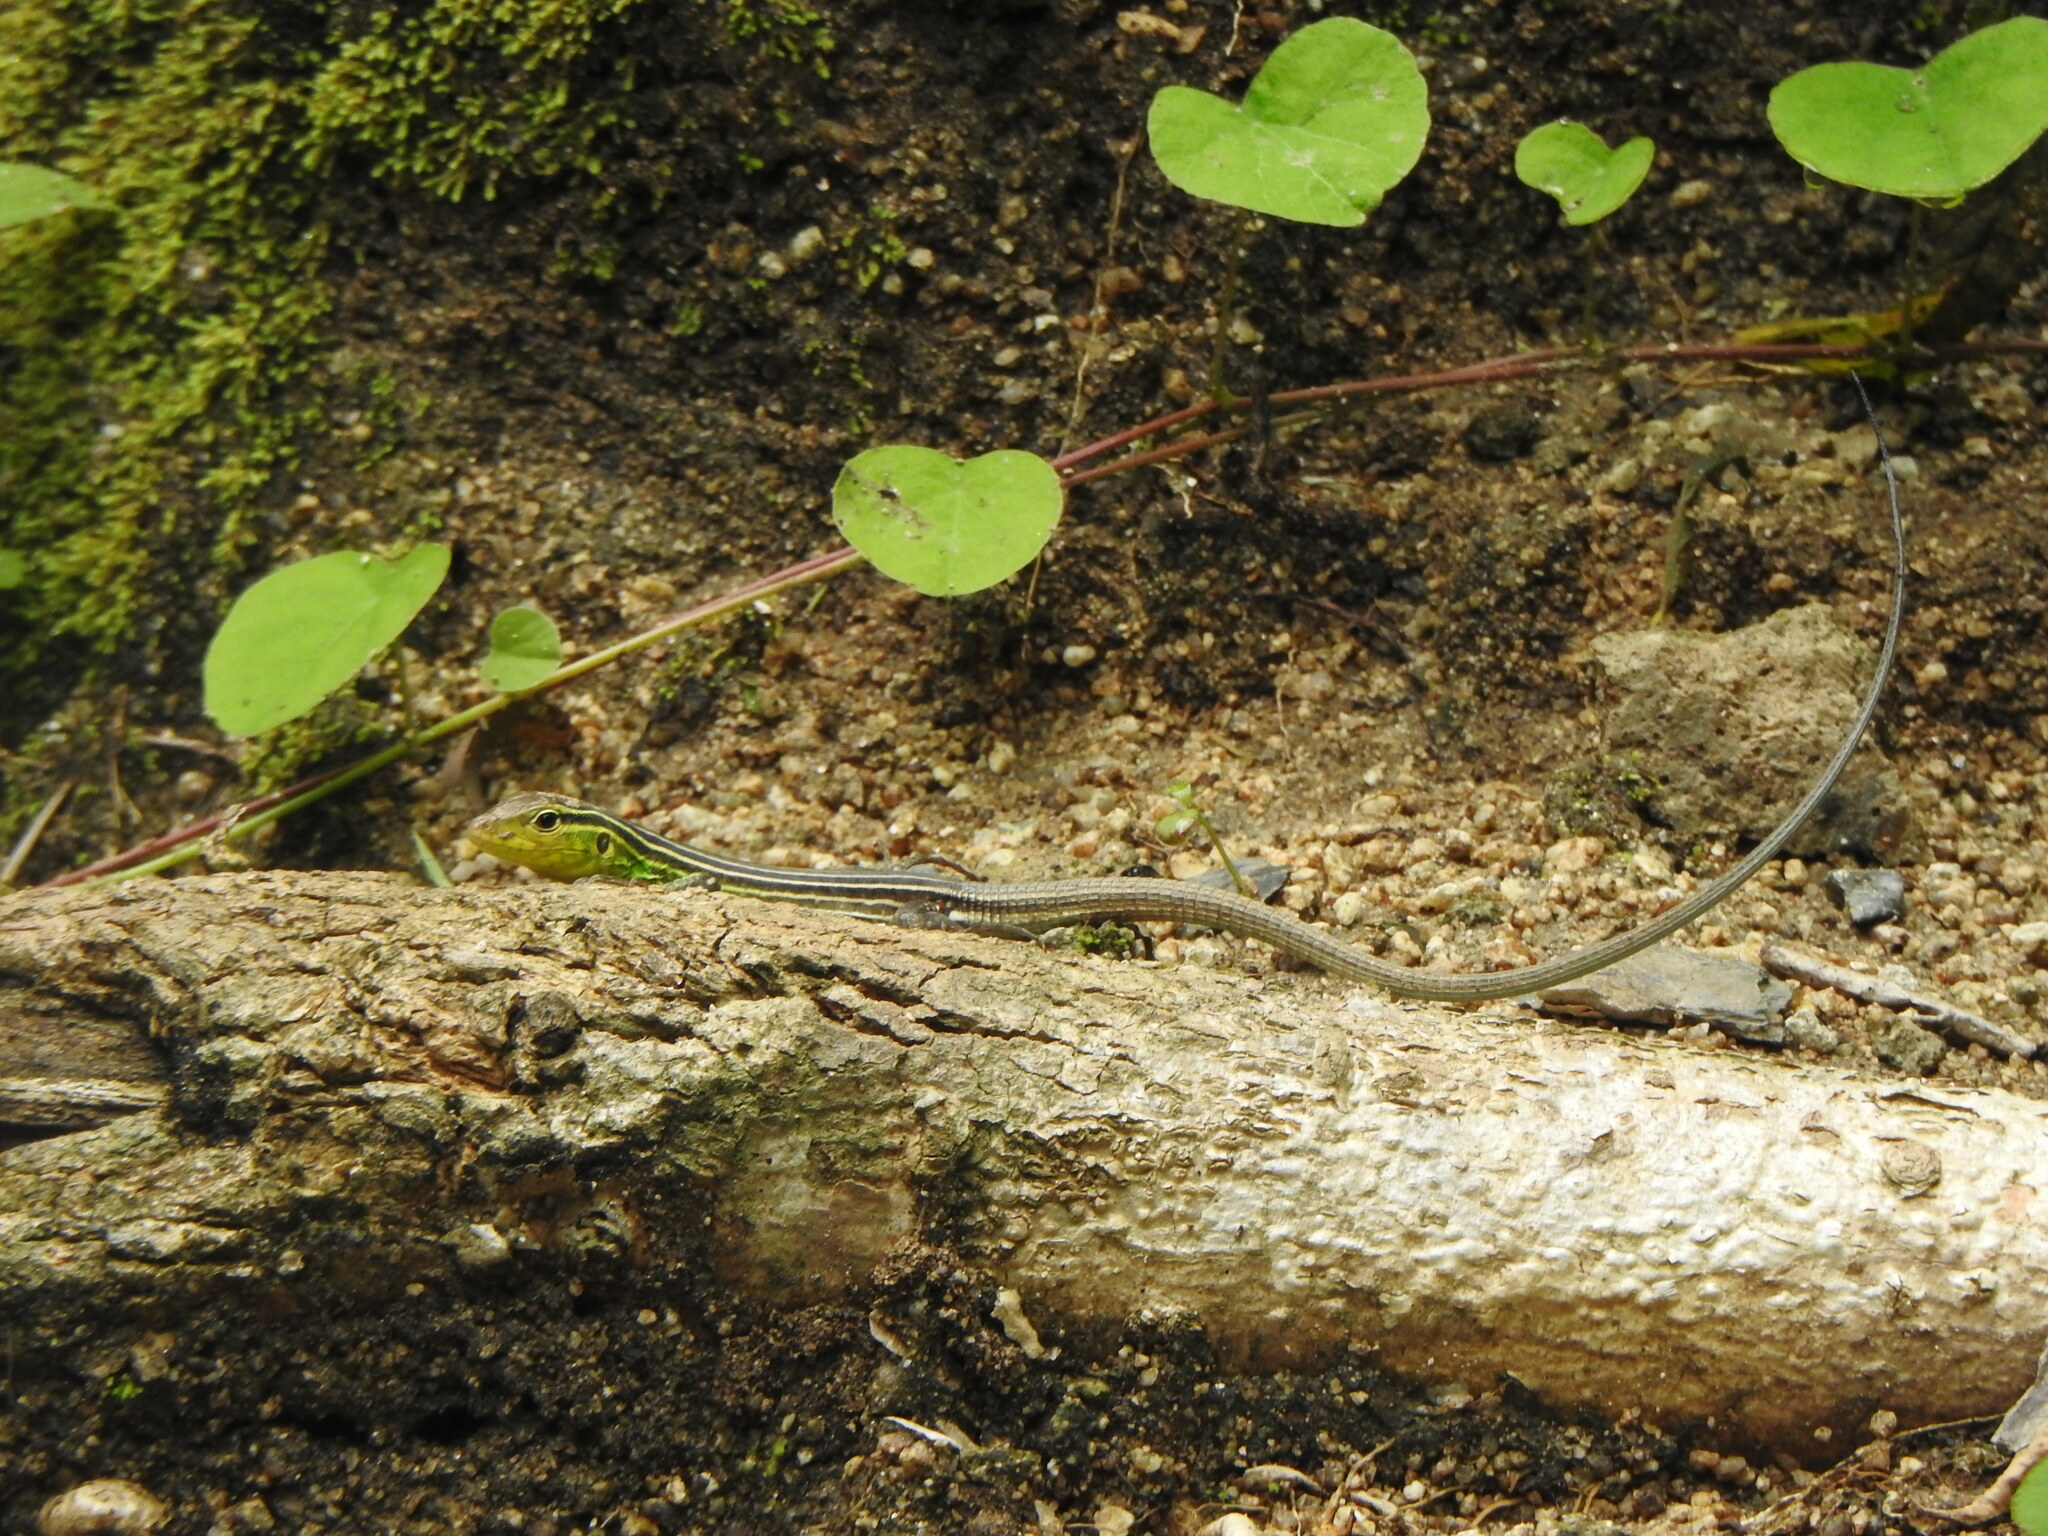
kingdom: Animalia
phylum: Chordata
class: Squamata
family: Teiidae
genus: Cnemidophorus
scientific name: Cnemidophorus gaigei
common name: Gaige’s rainbow lizard
